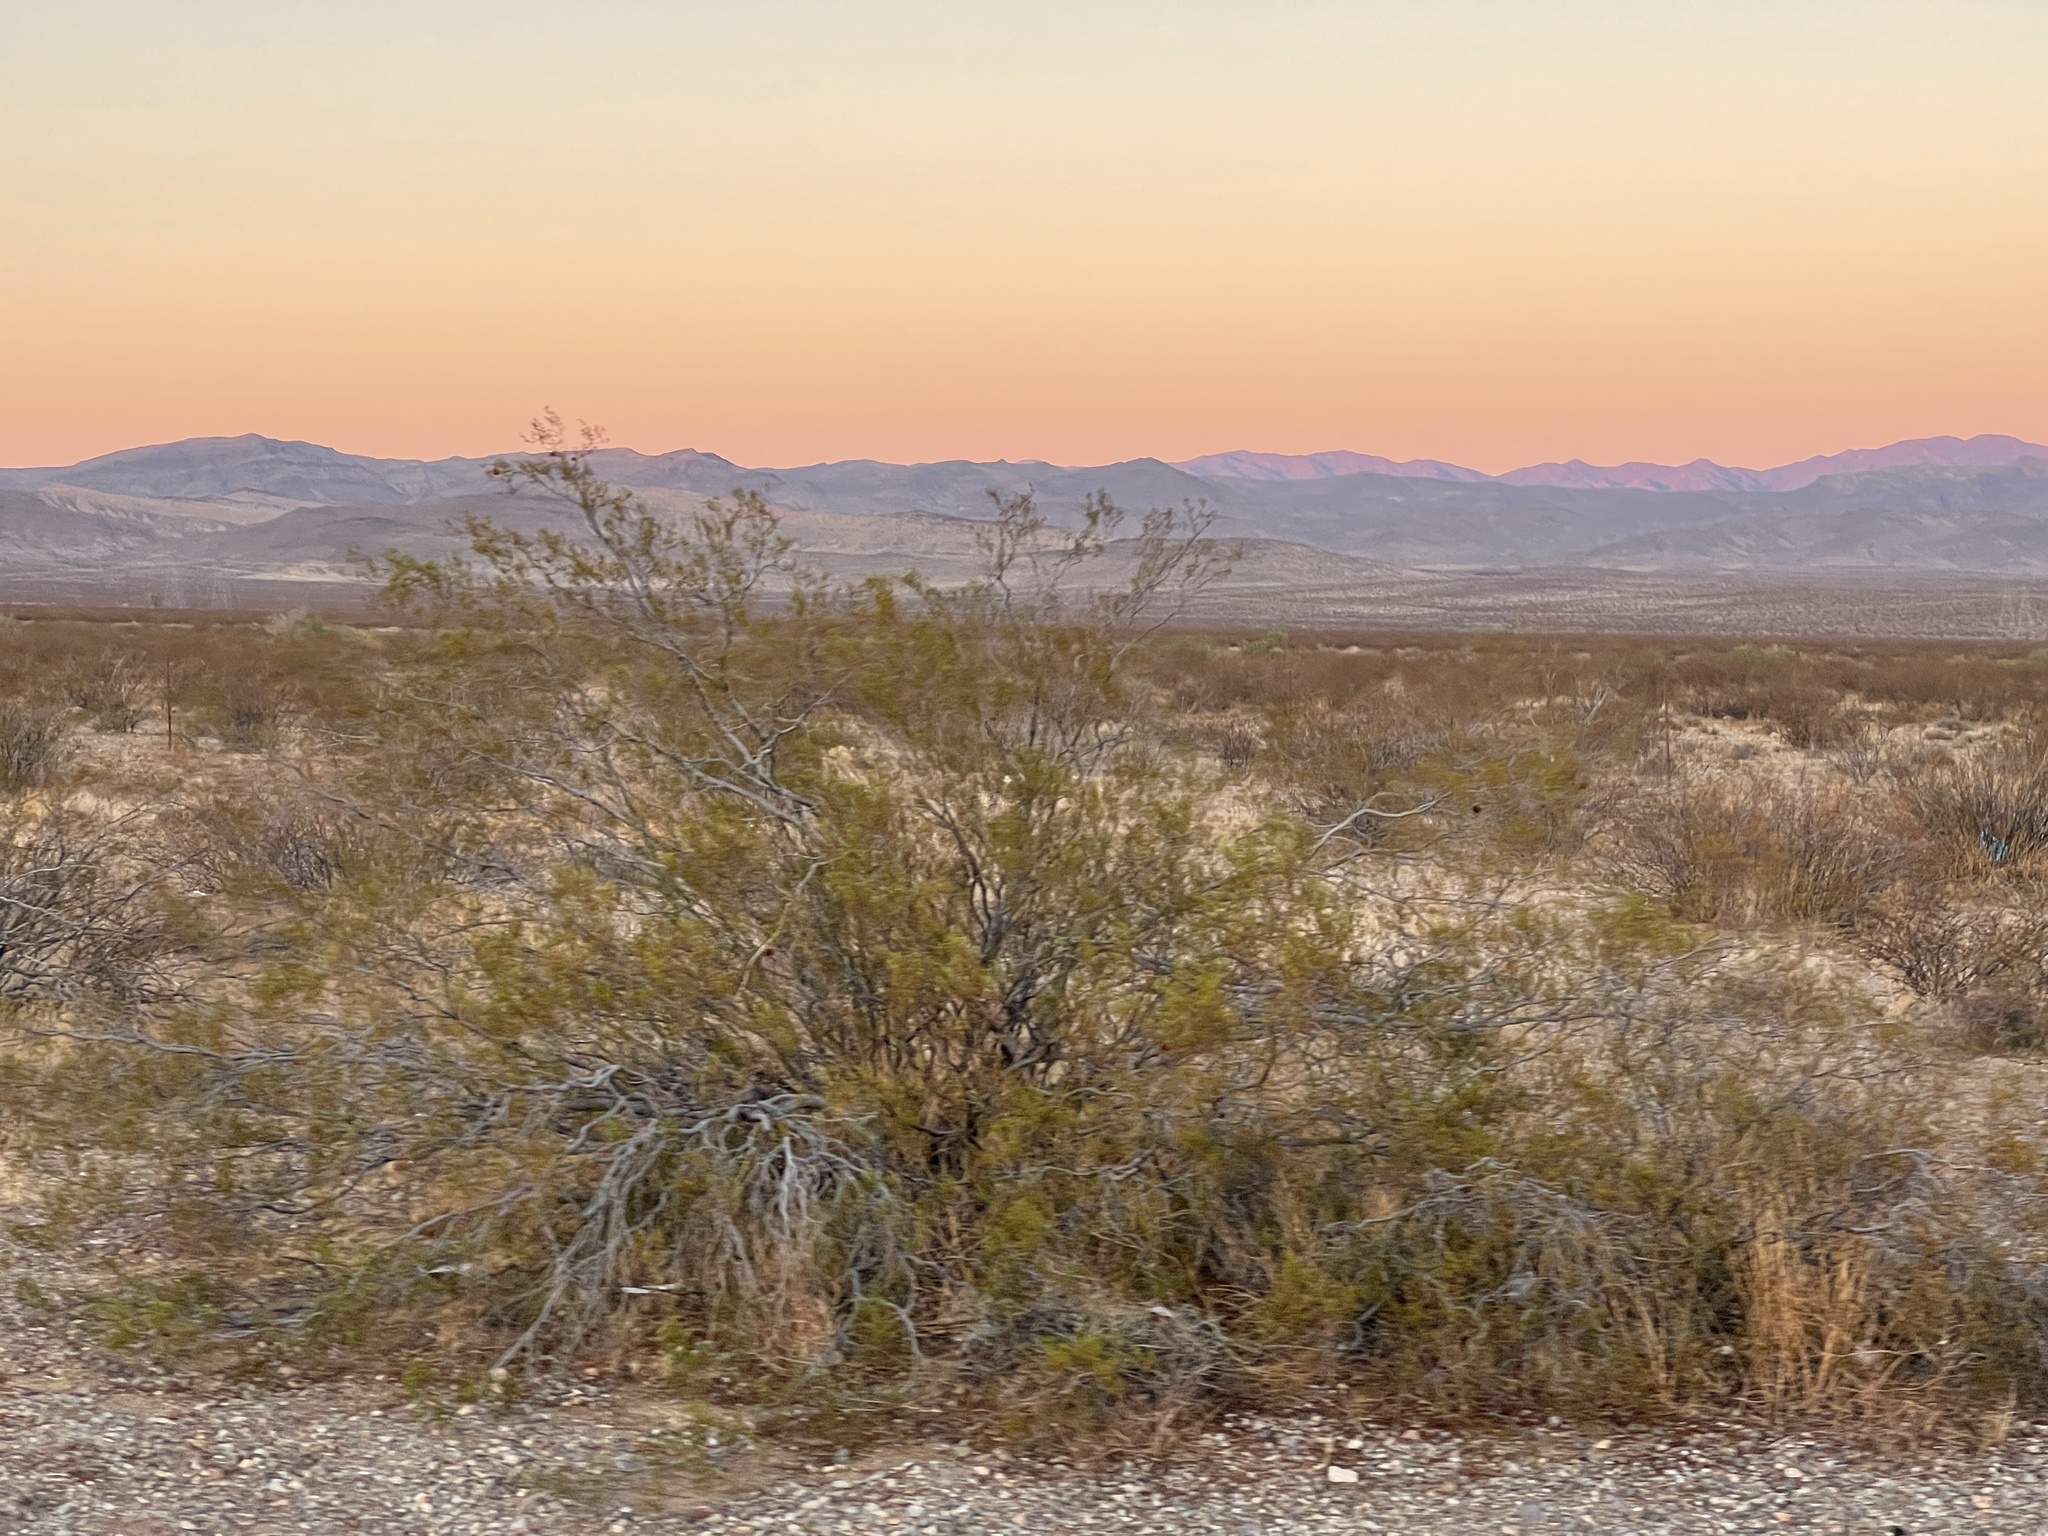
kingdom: Plantae
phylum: Tracheophyta
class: Magnoliopsida
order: Zygophyllales
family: Zygophyllaceae
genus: Larrea
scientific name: Larrea tridentata
